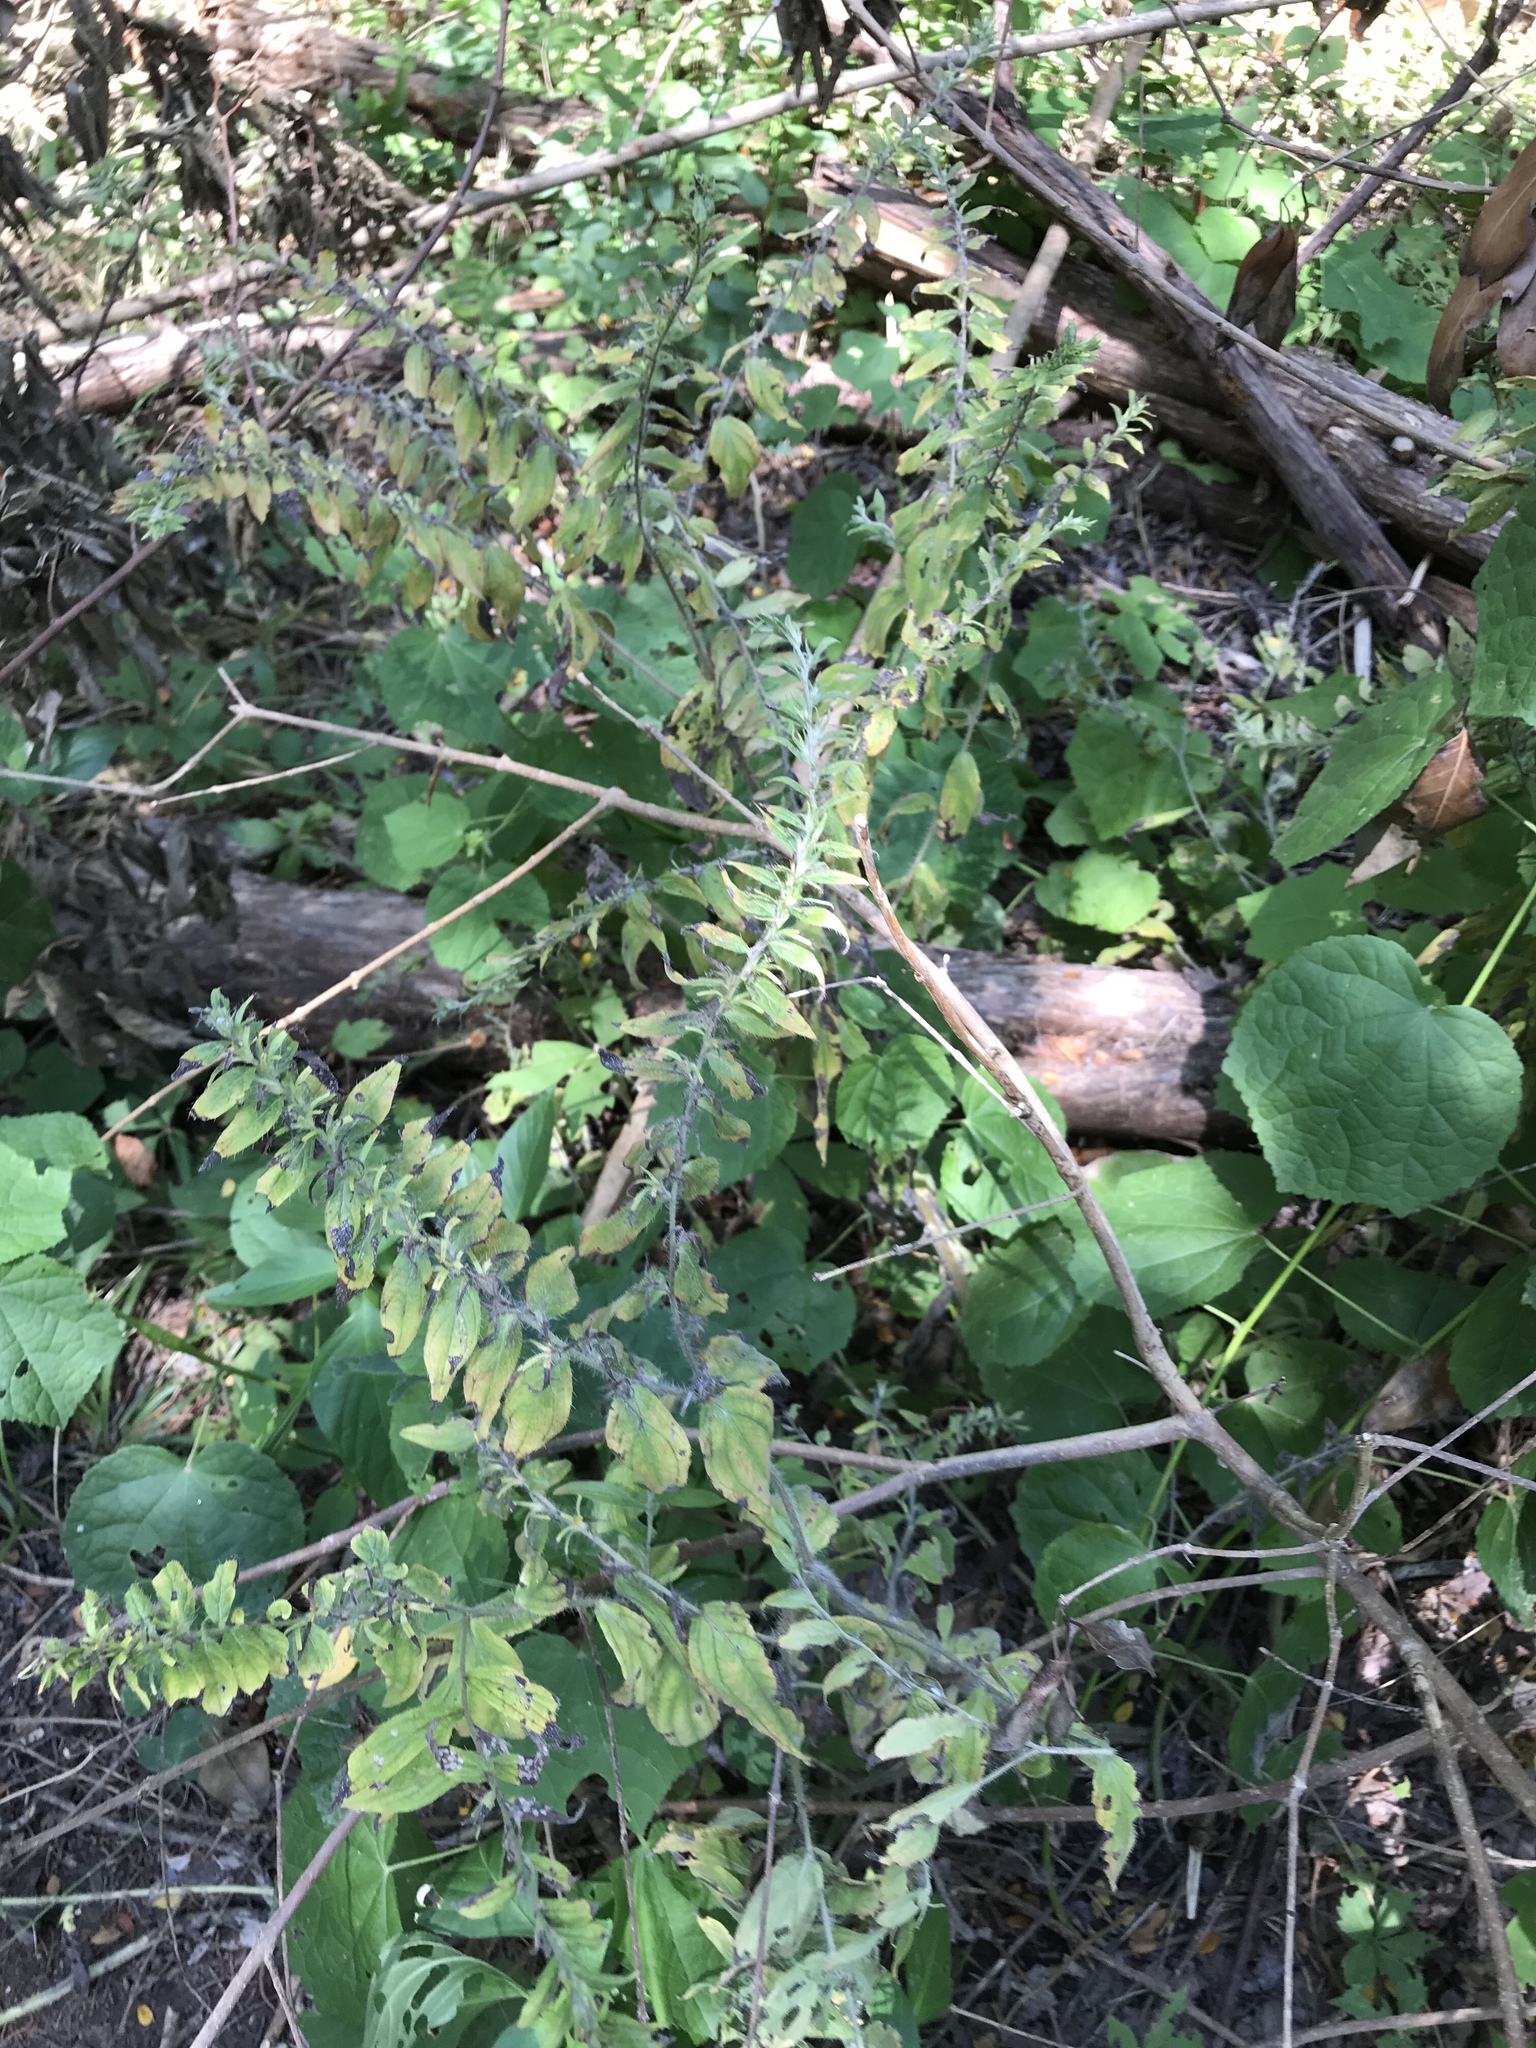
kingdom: Plantae
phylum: Tracheophyta
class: Magnoliopsida
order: Boraginales
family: Boraginaceae
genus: Lithospermum
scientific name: Lithospermum caroliniense
